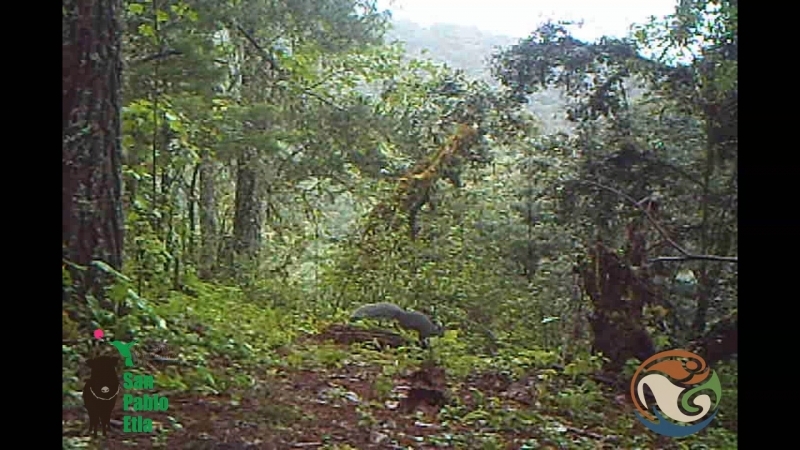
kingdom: Animalia
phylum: Chordata
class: Mammalia
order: Rodentia
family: Sciuridae
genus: Sciurus
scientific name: Sciurus aureogaster
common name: Red-bellied squirrel
